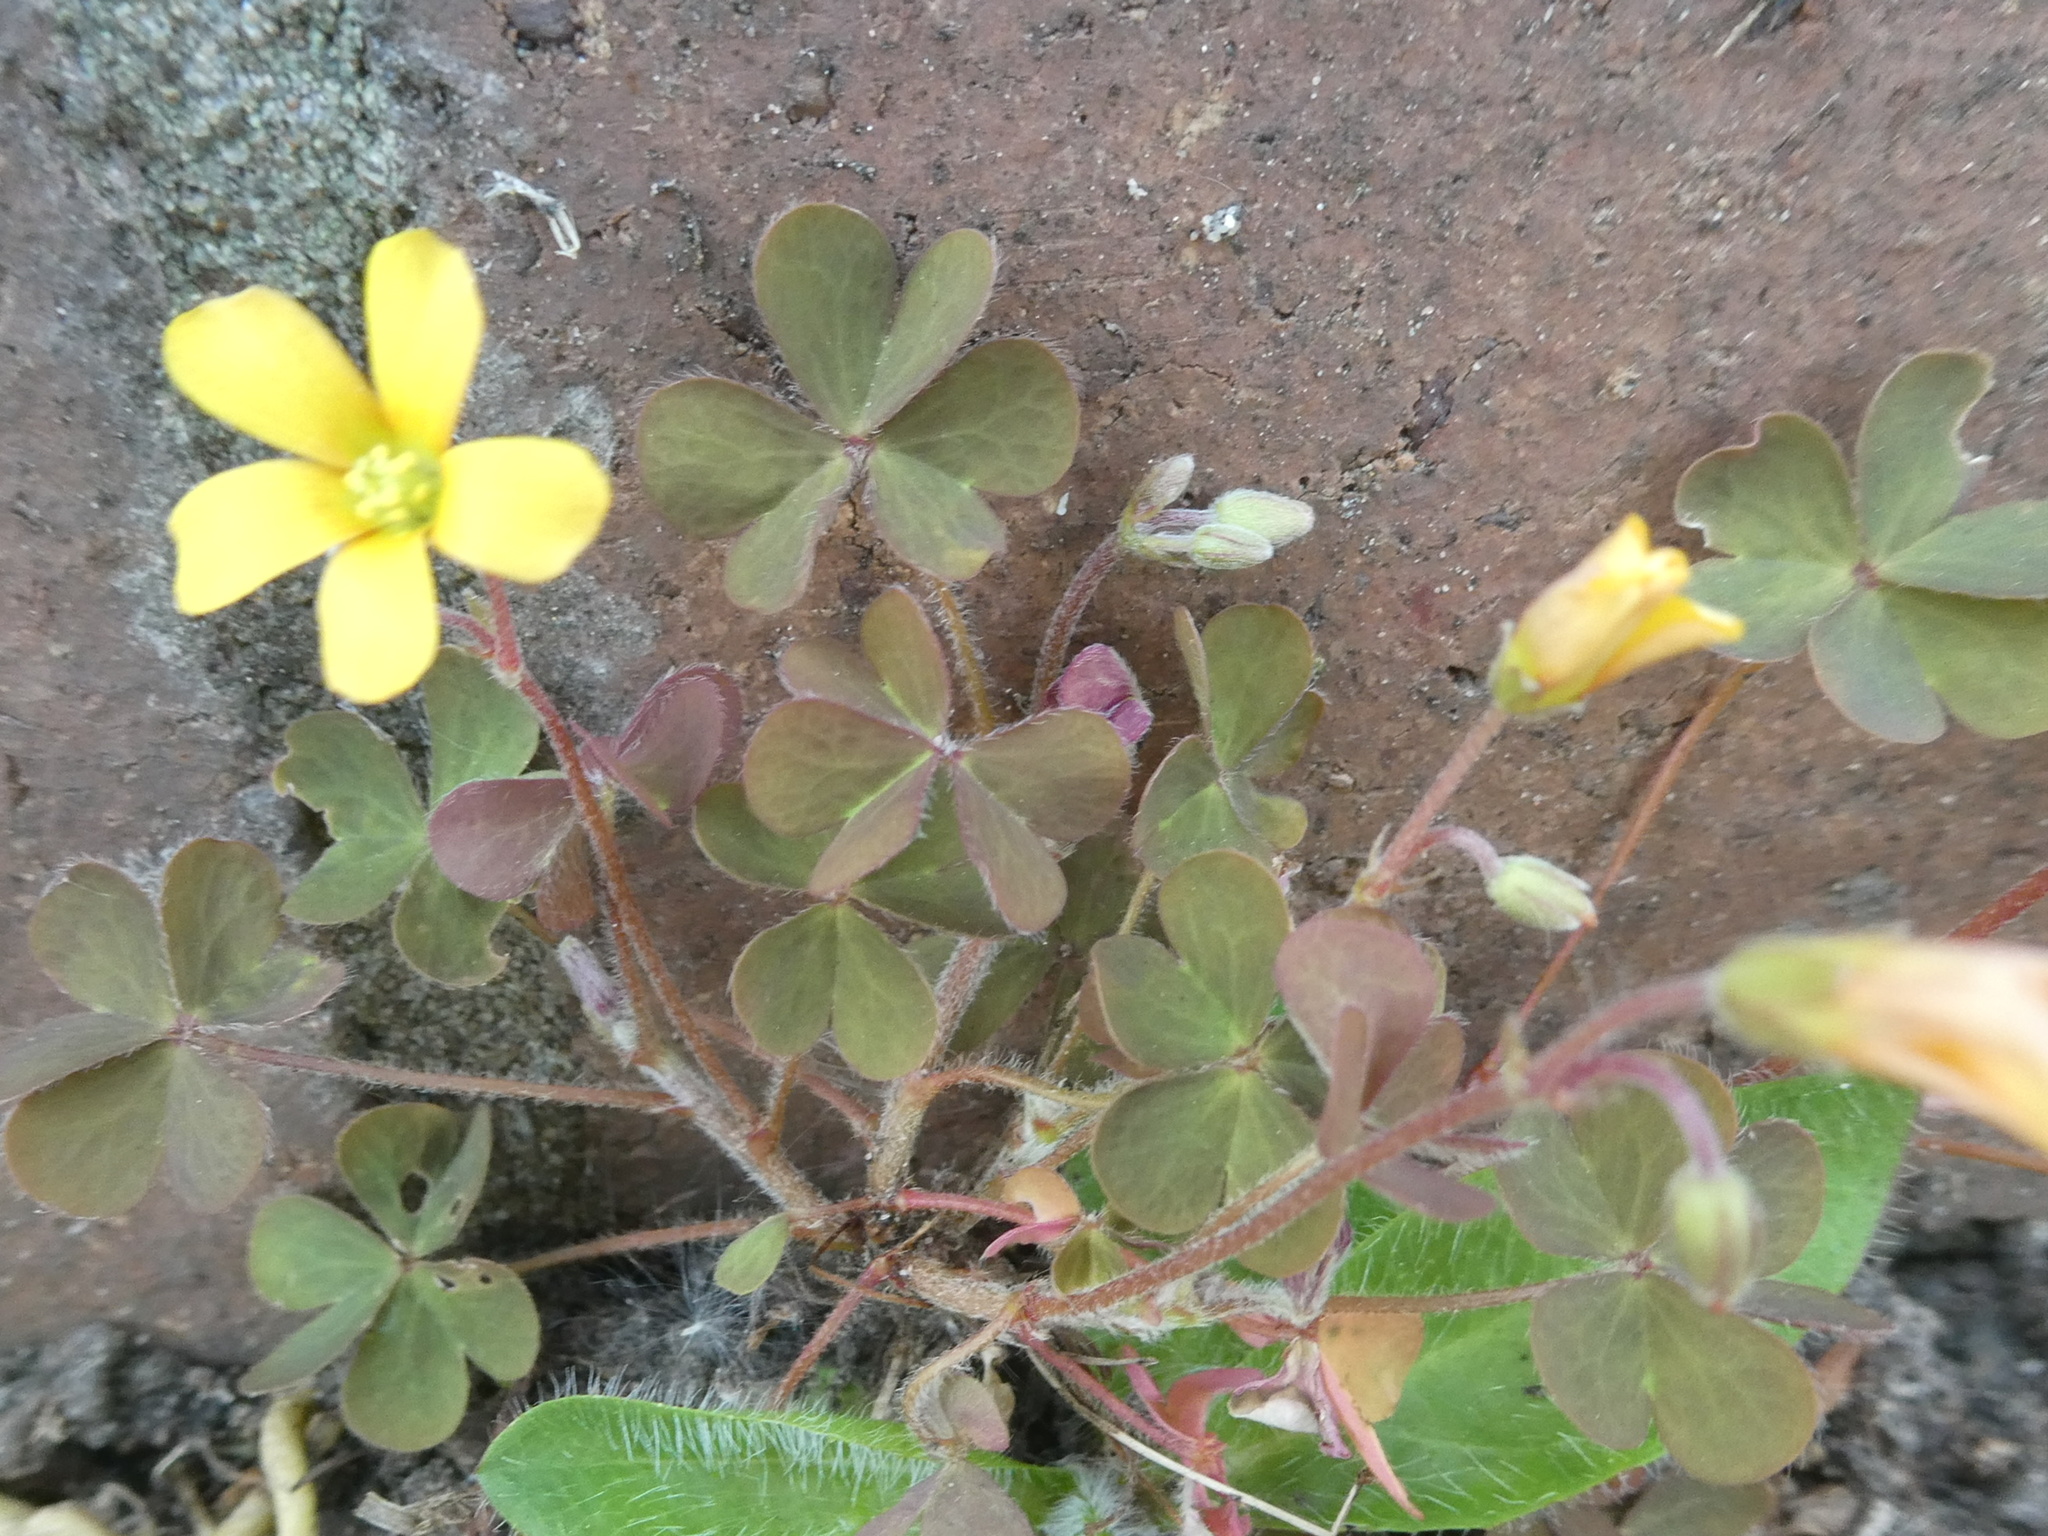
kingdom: Plantae
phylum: Tracheophyta
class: Magnoliopsida
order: Oxalidales
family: Oxalidaceae
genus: Oxalis
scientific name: Oxalis corniculata
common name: Procumbent yellow-sorrel
